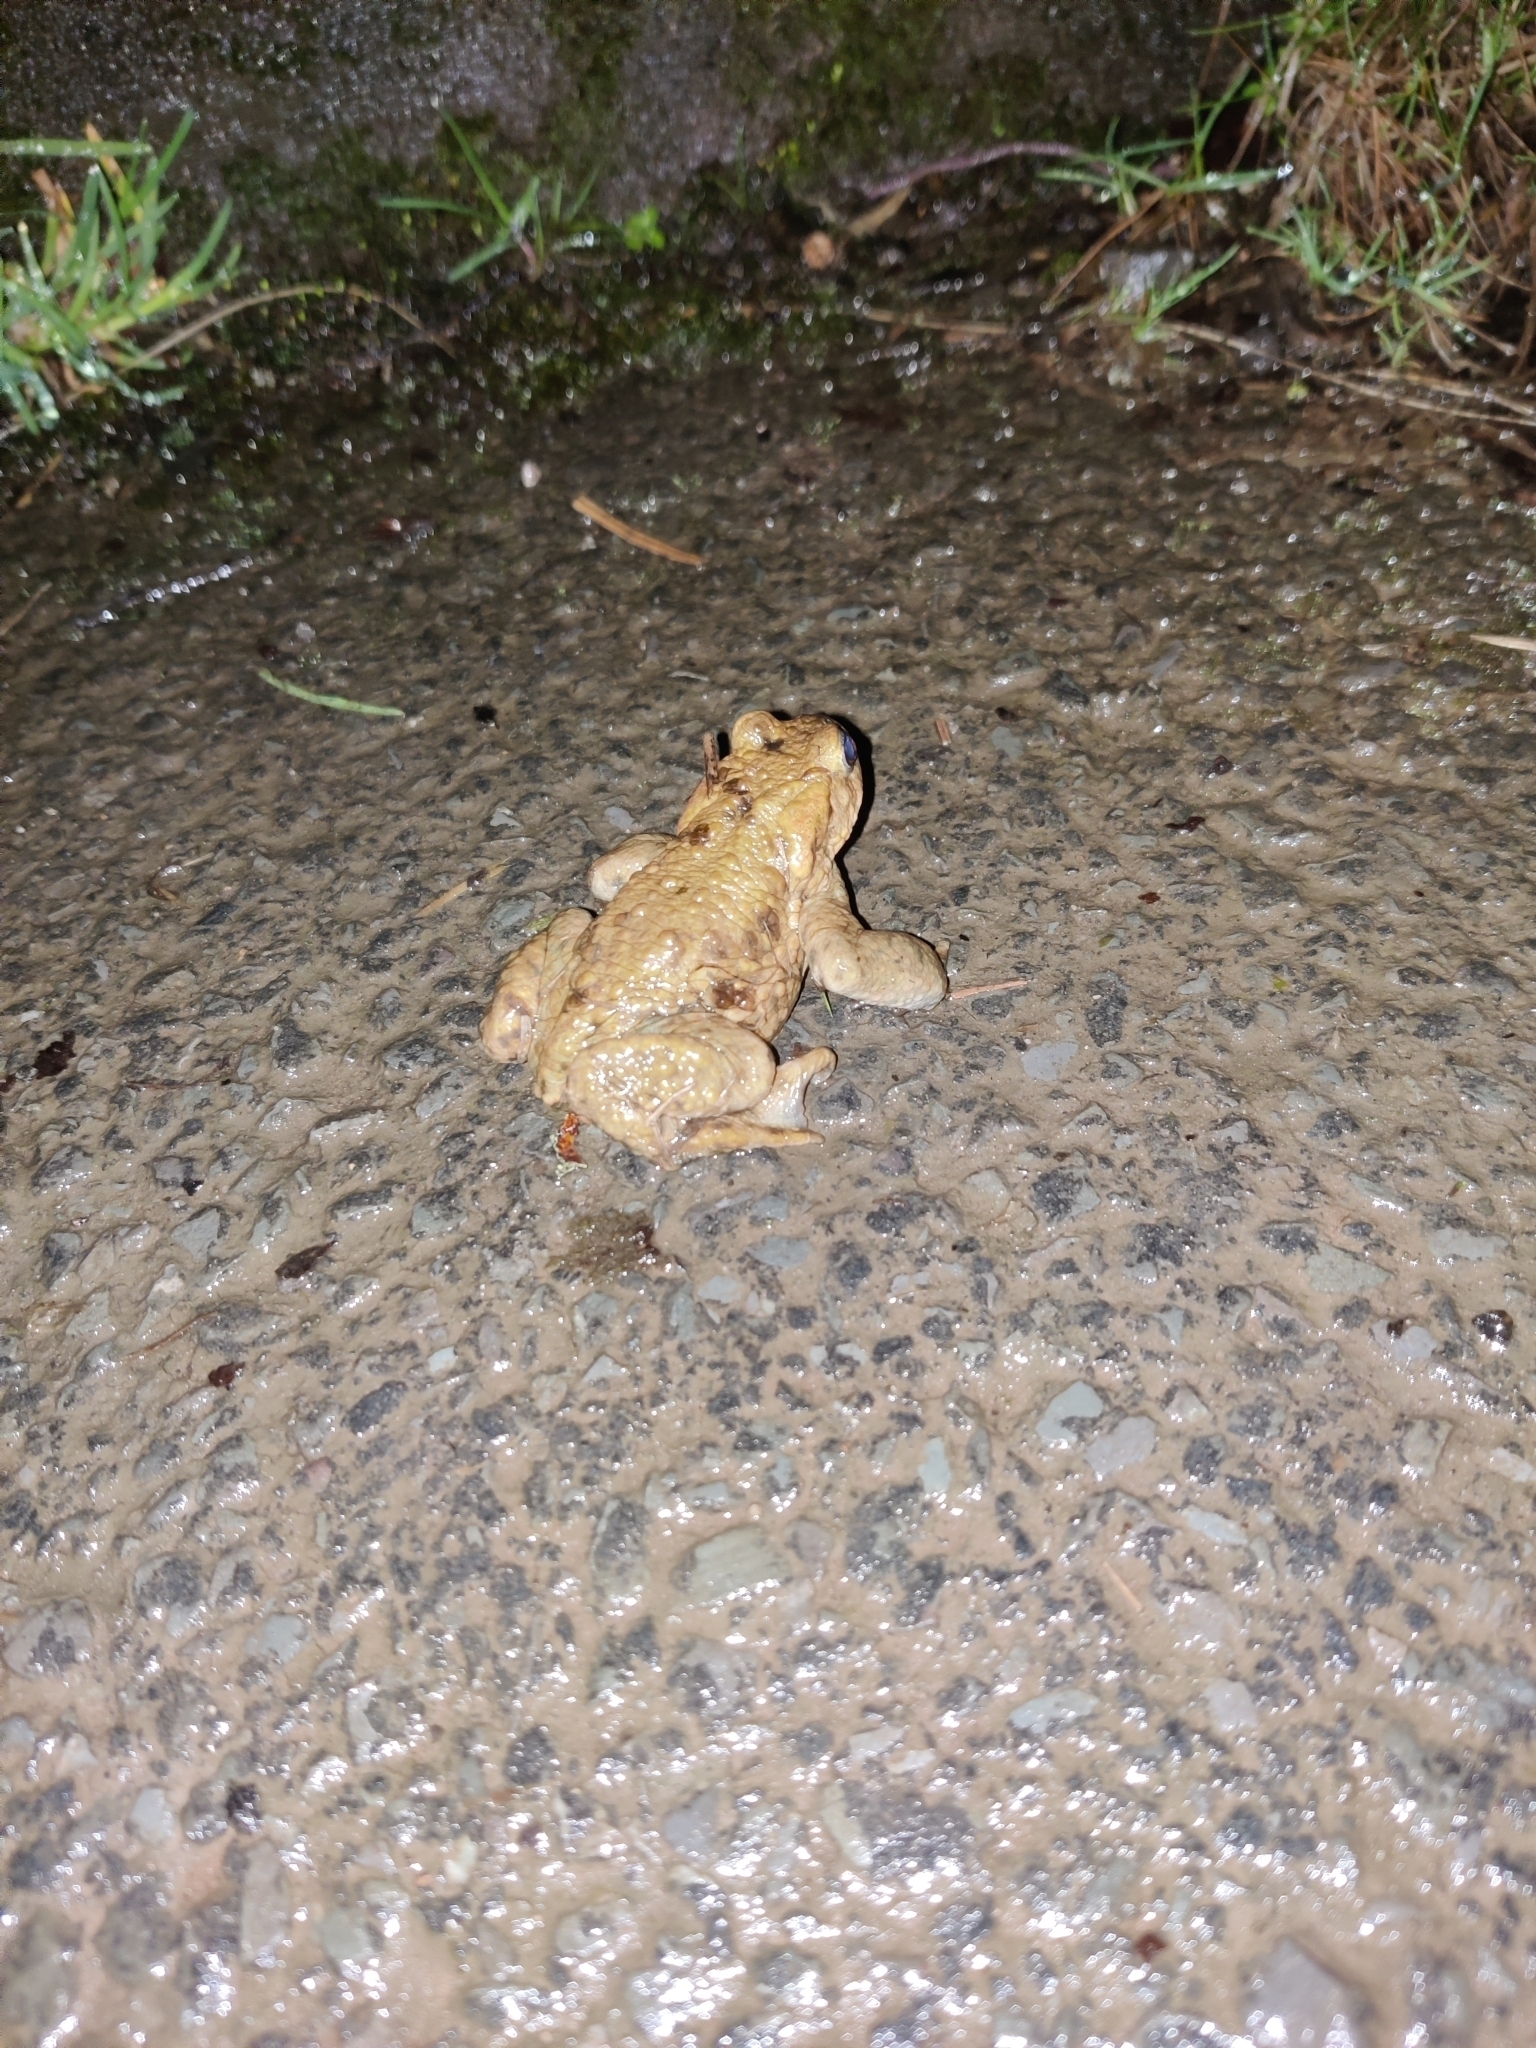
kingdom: Animalia
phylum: Chordata
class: Amphibia
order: Anura
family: Bufonidae
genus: Bufo
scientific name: Bufo bufo
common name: Common toad
